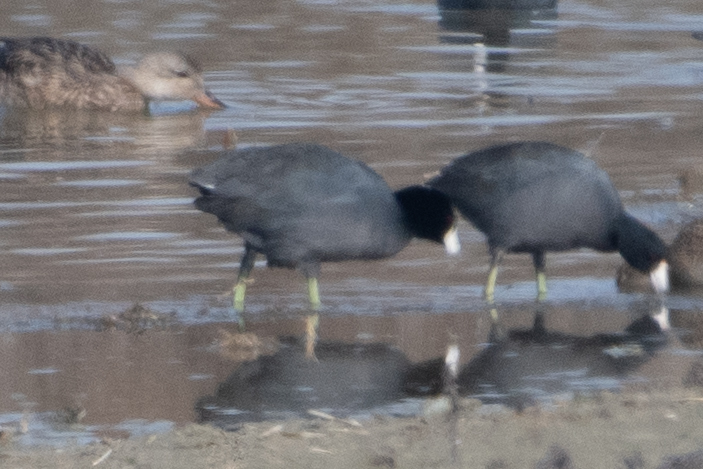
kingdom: Animalia
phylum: Chordata
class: Aves
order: Gruiformes
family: Rallidae
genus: Fulica
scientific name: Fulica americana
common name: American coot
